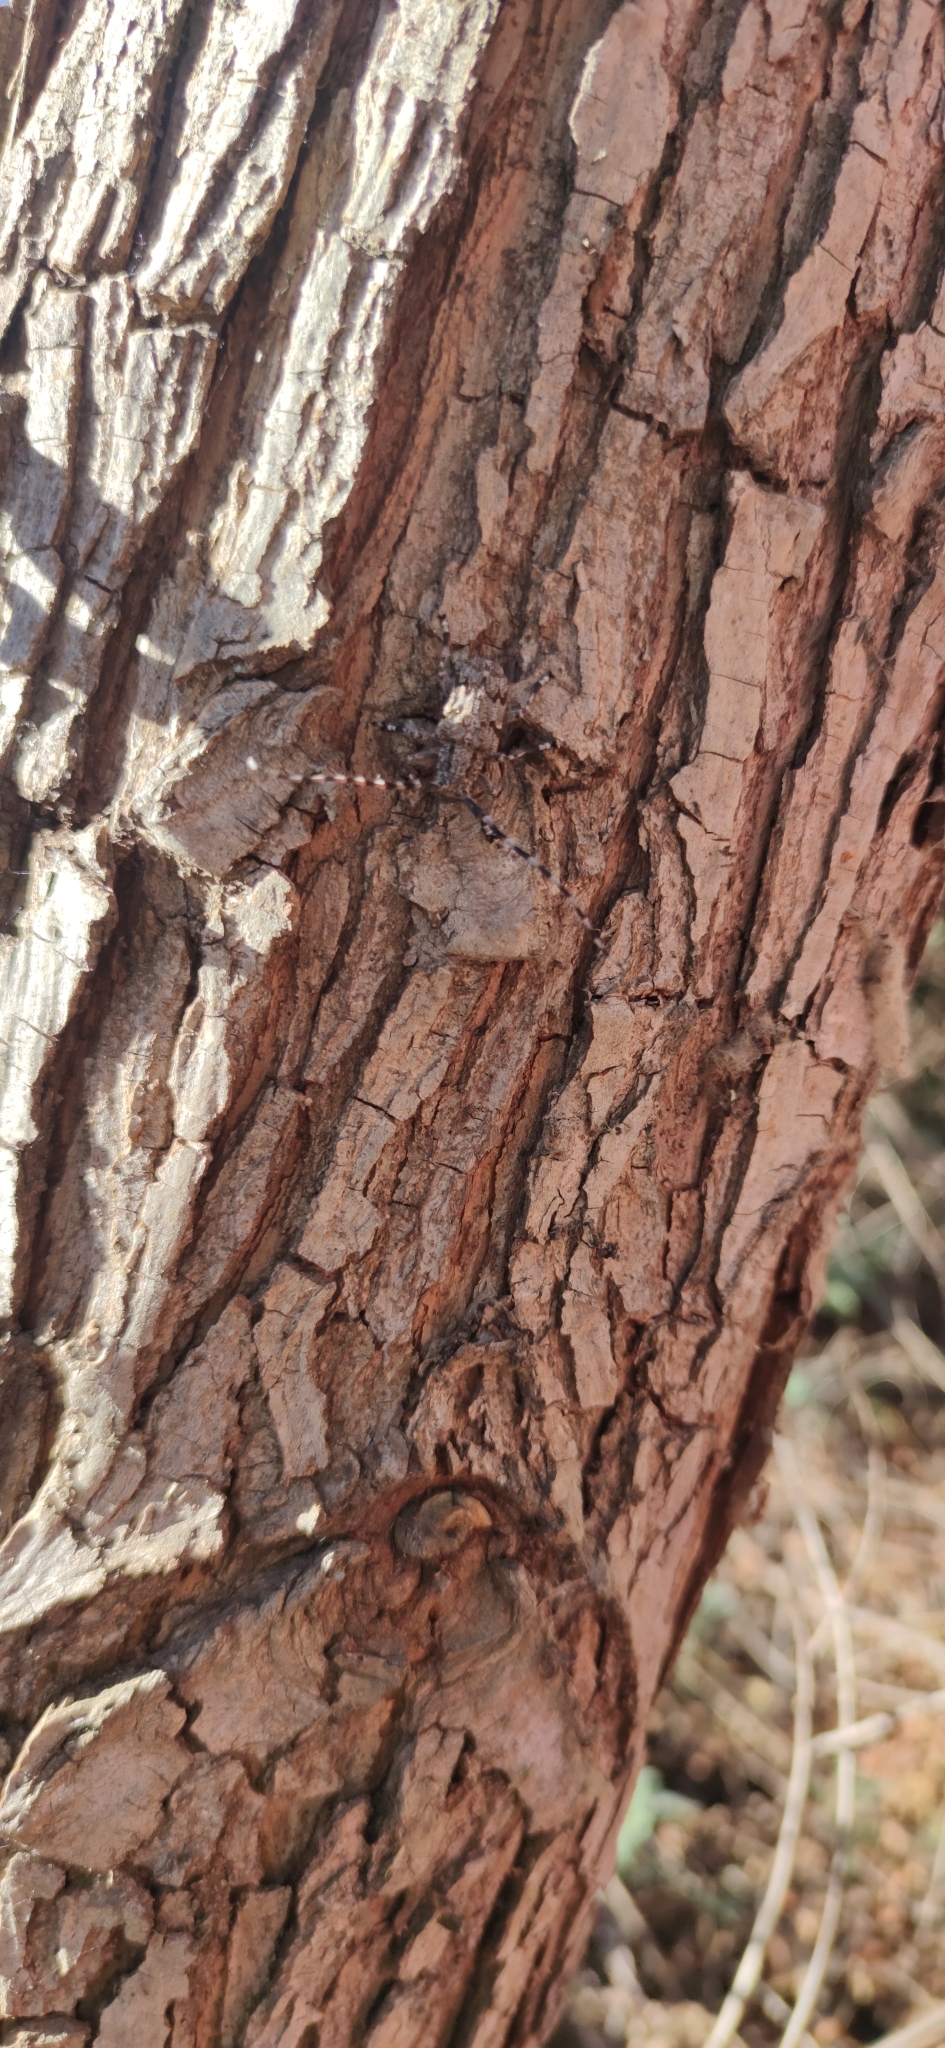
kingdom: Animalia
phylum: Arthropoda
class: Insecta
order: Coleoptera
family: Cerambycidae
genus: Synaphaeta
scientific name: Synaphaeta guexi
